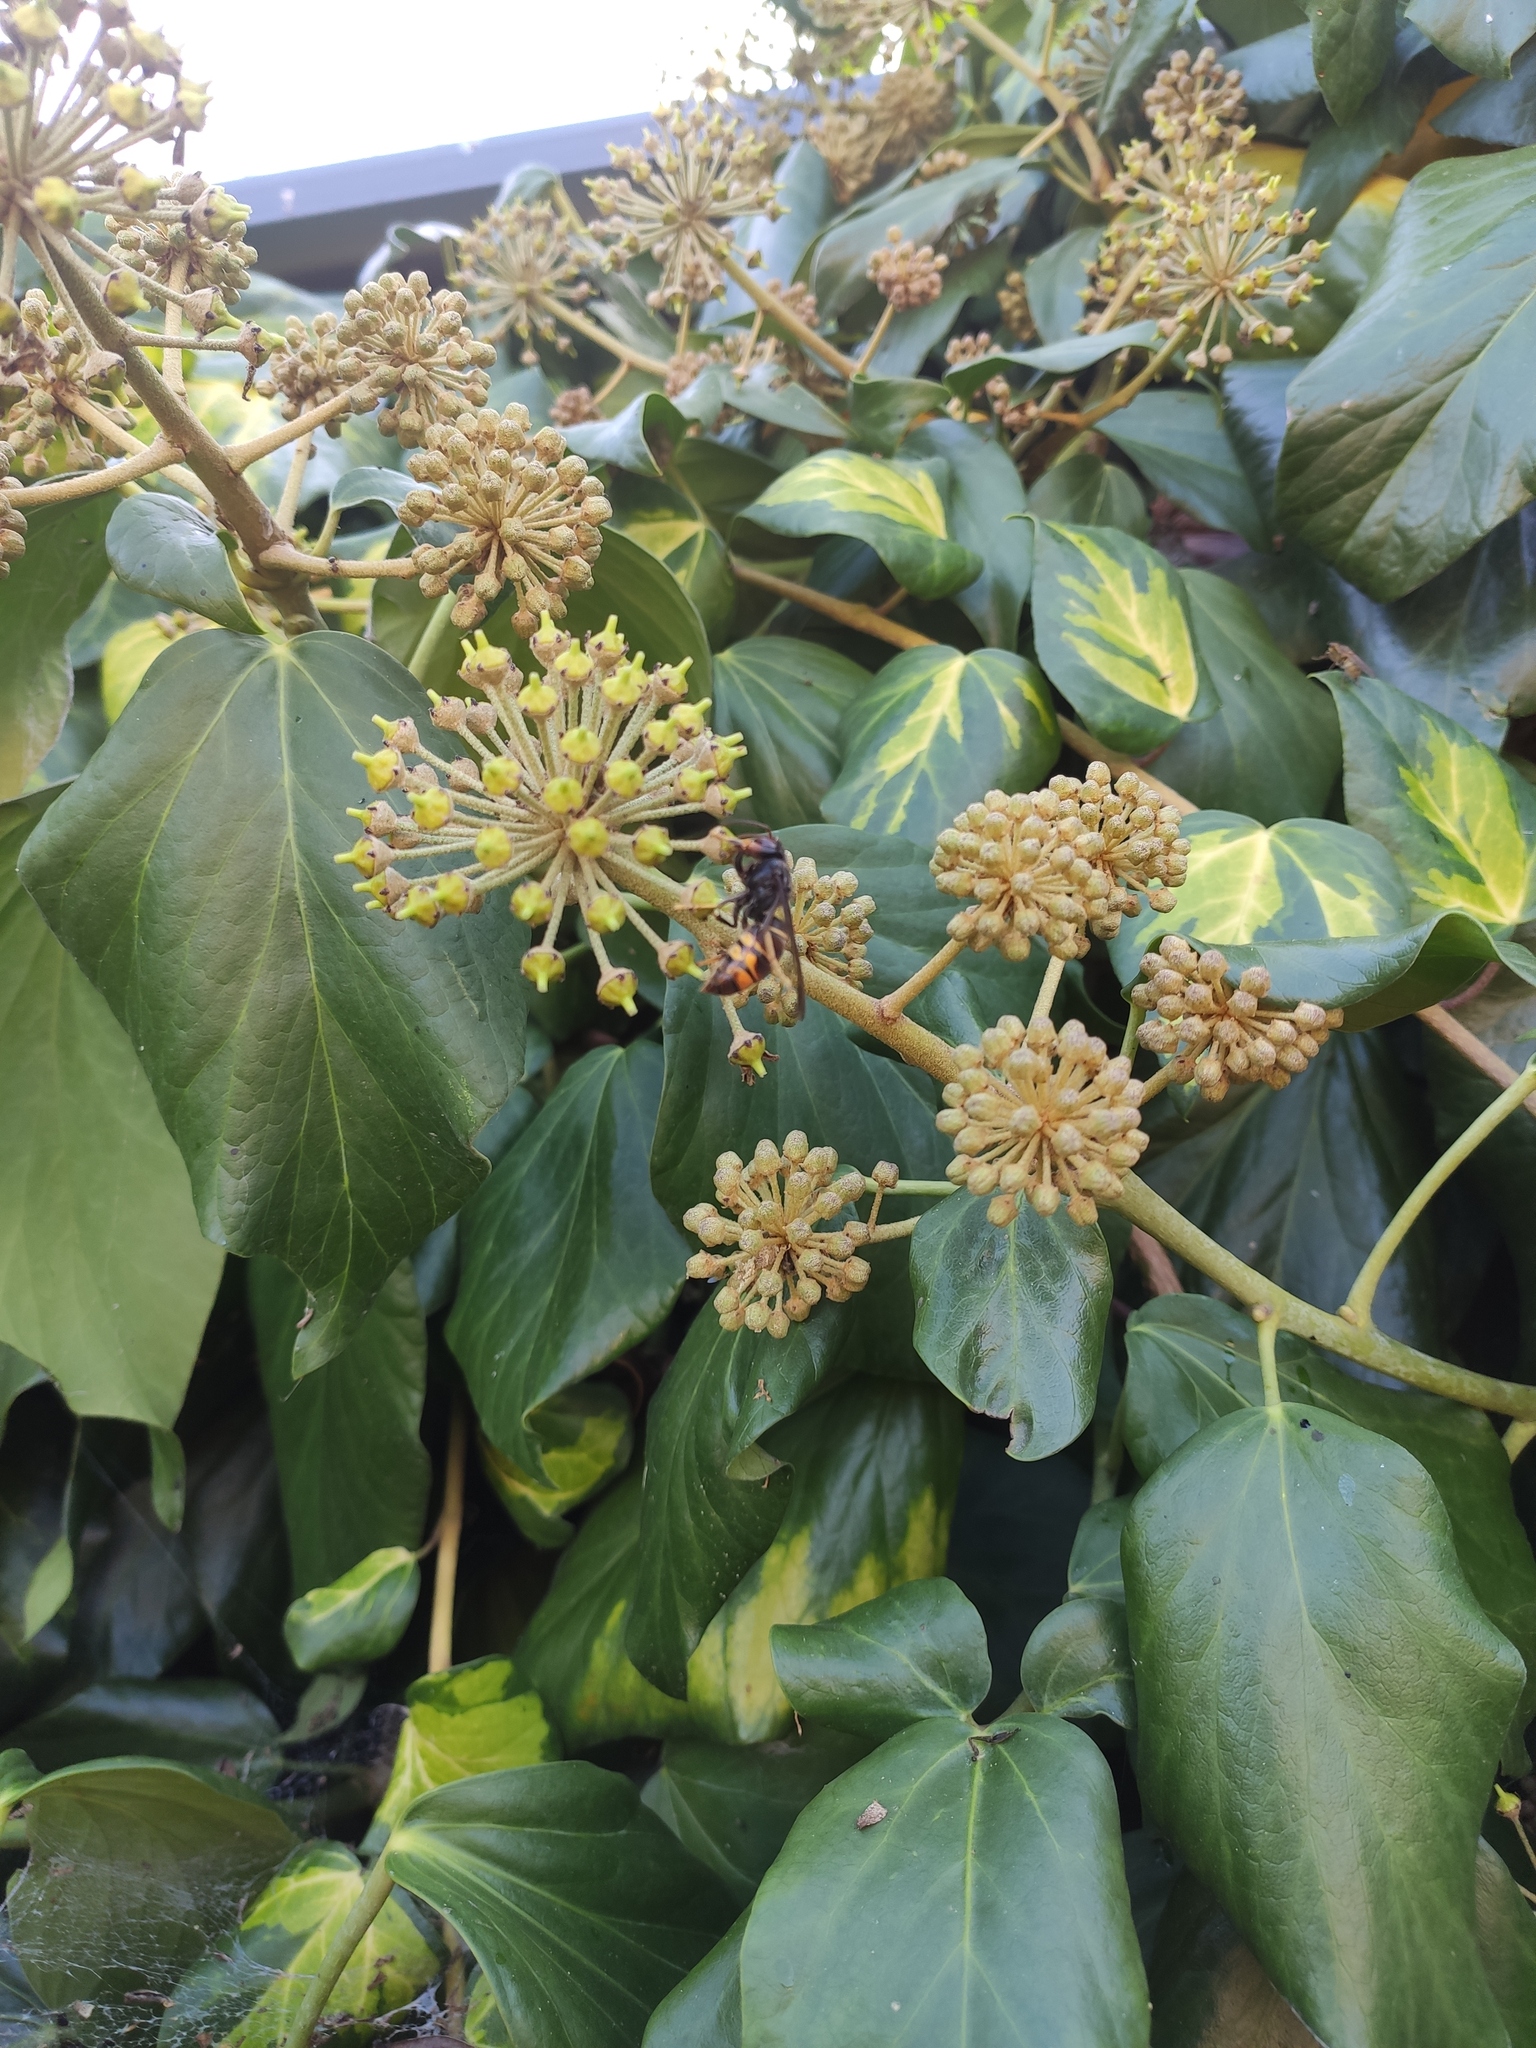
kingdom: Animalia
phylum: Arthropoda
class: Insecta
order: Hymenoptera
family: Vespidae
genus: Vespa
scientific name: Vespa velutina
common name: Asian hornet
